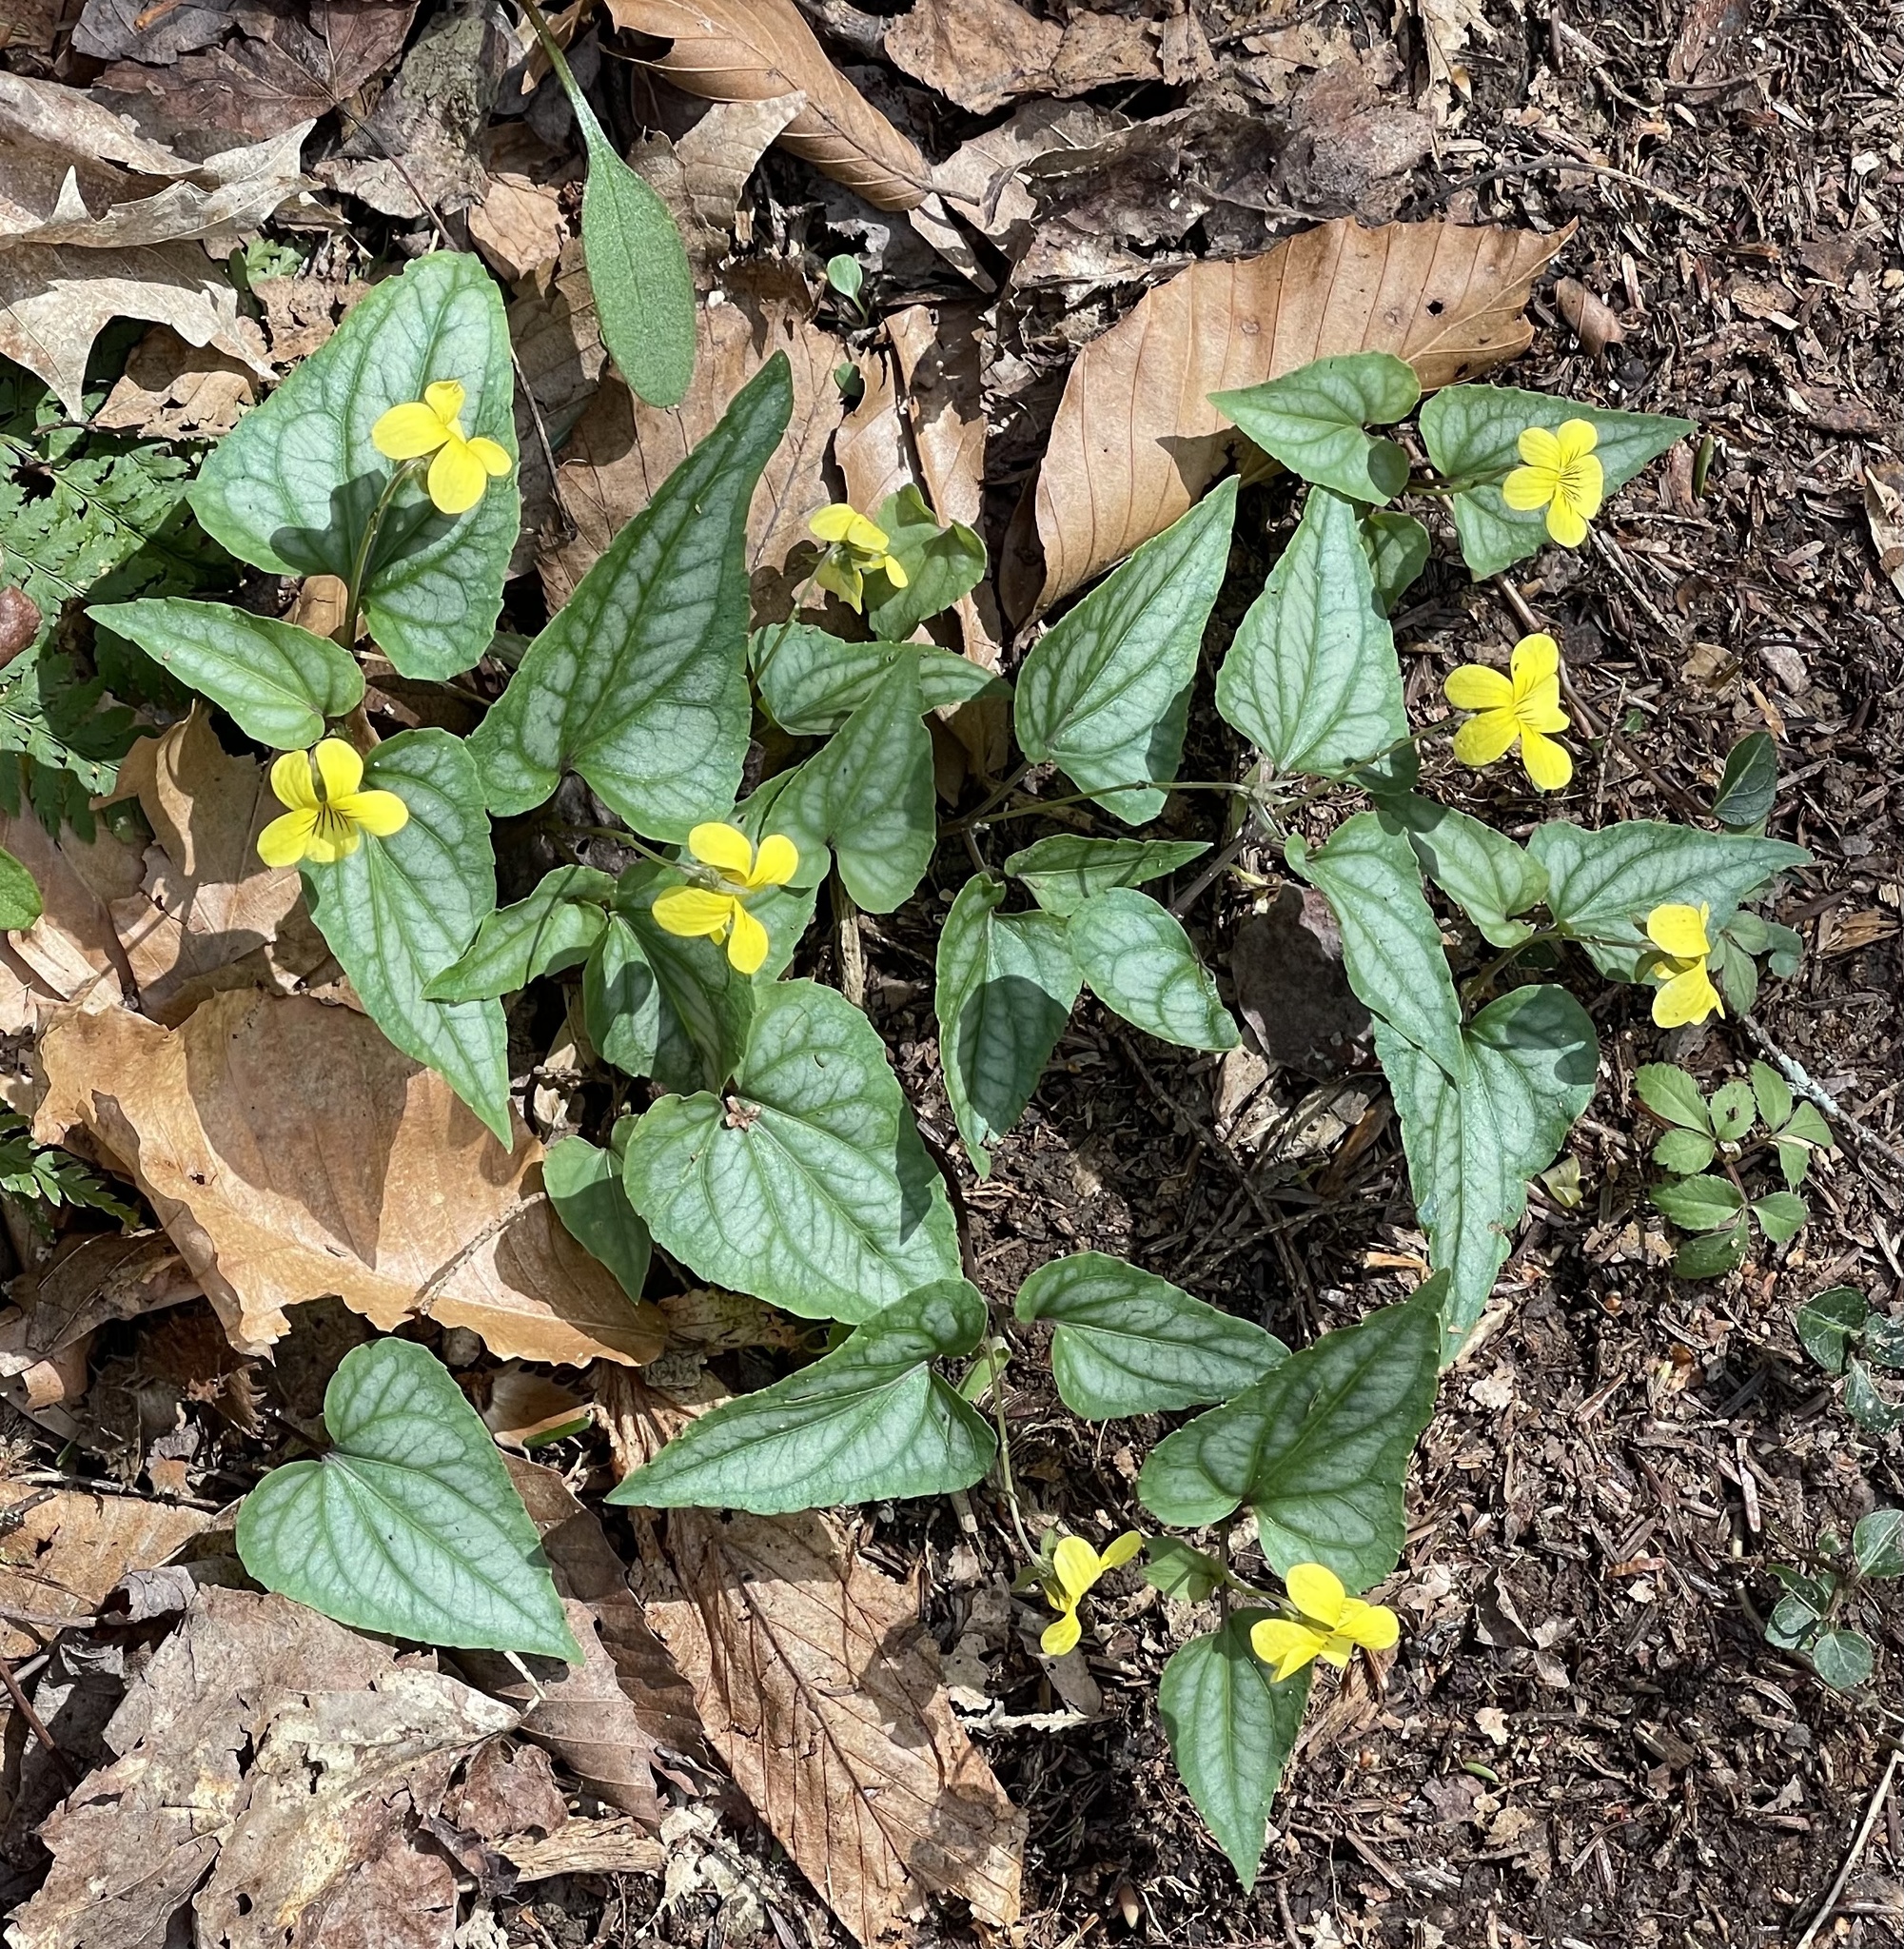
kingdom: Plantae
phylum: Tracheophyta
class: Magnoliopsida
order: Malpighiales
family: Violaceae
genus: Viola
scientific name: Viola hastata
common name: Spear-leaf violet
